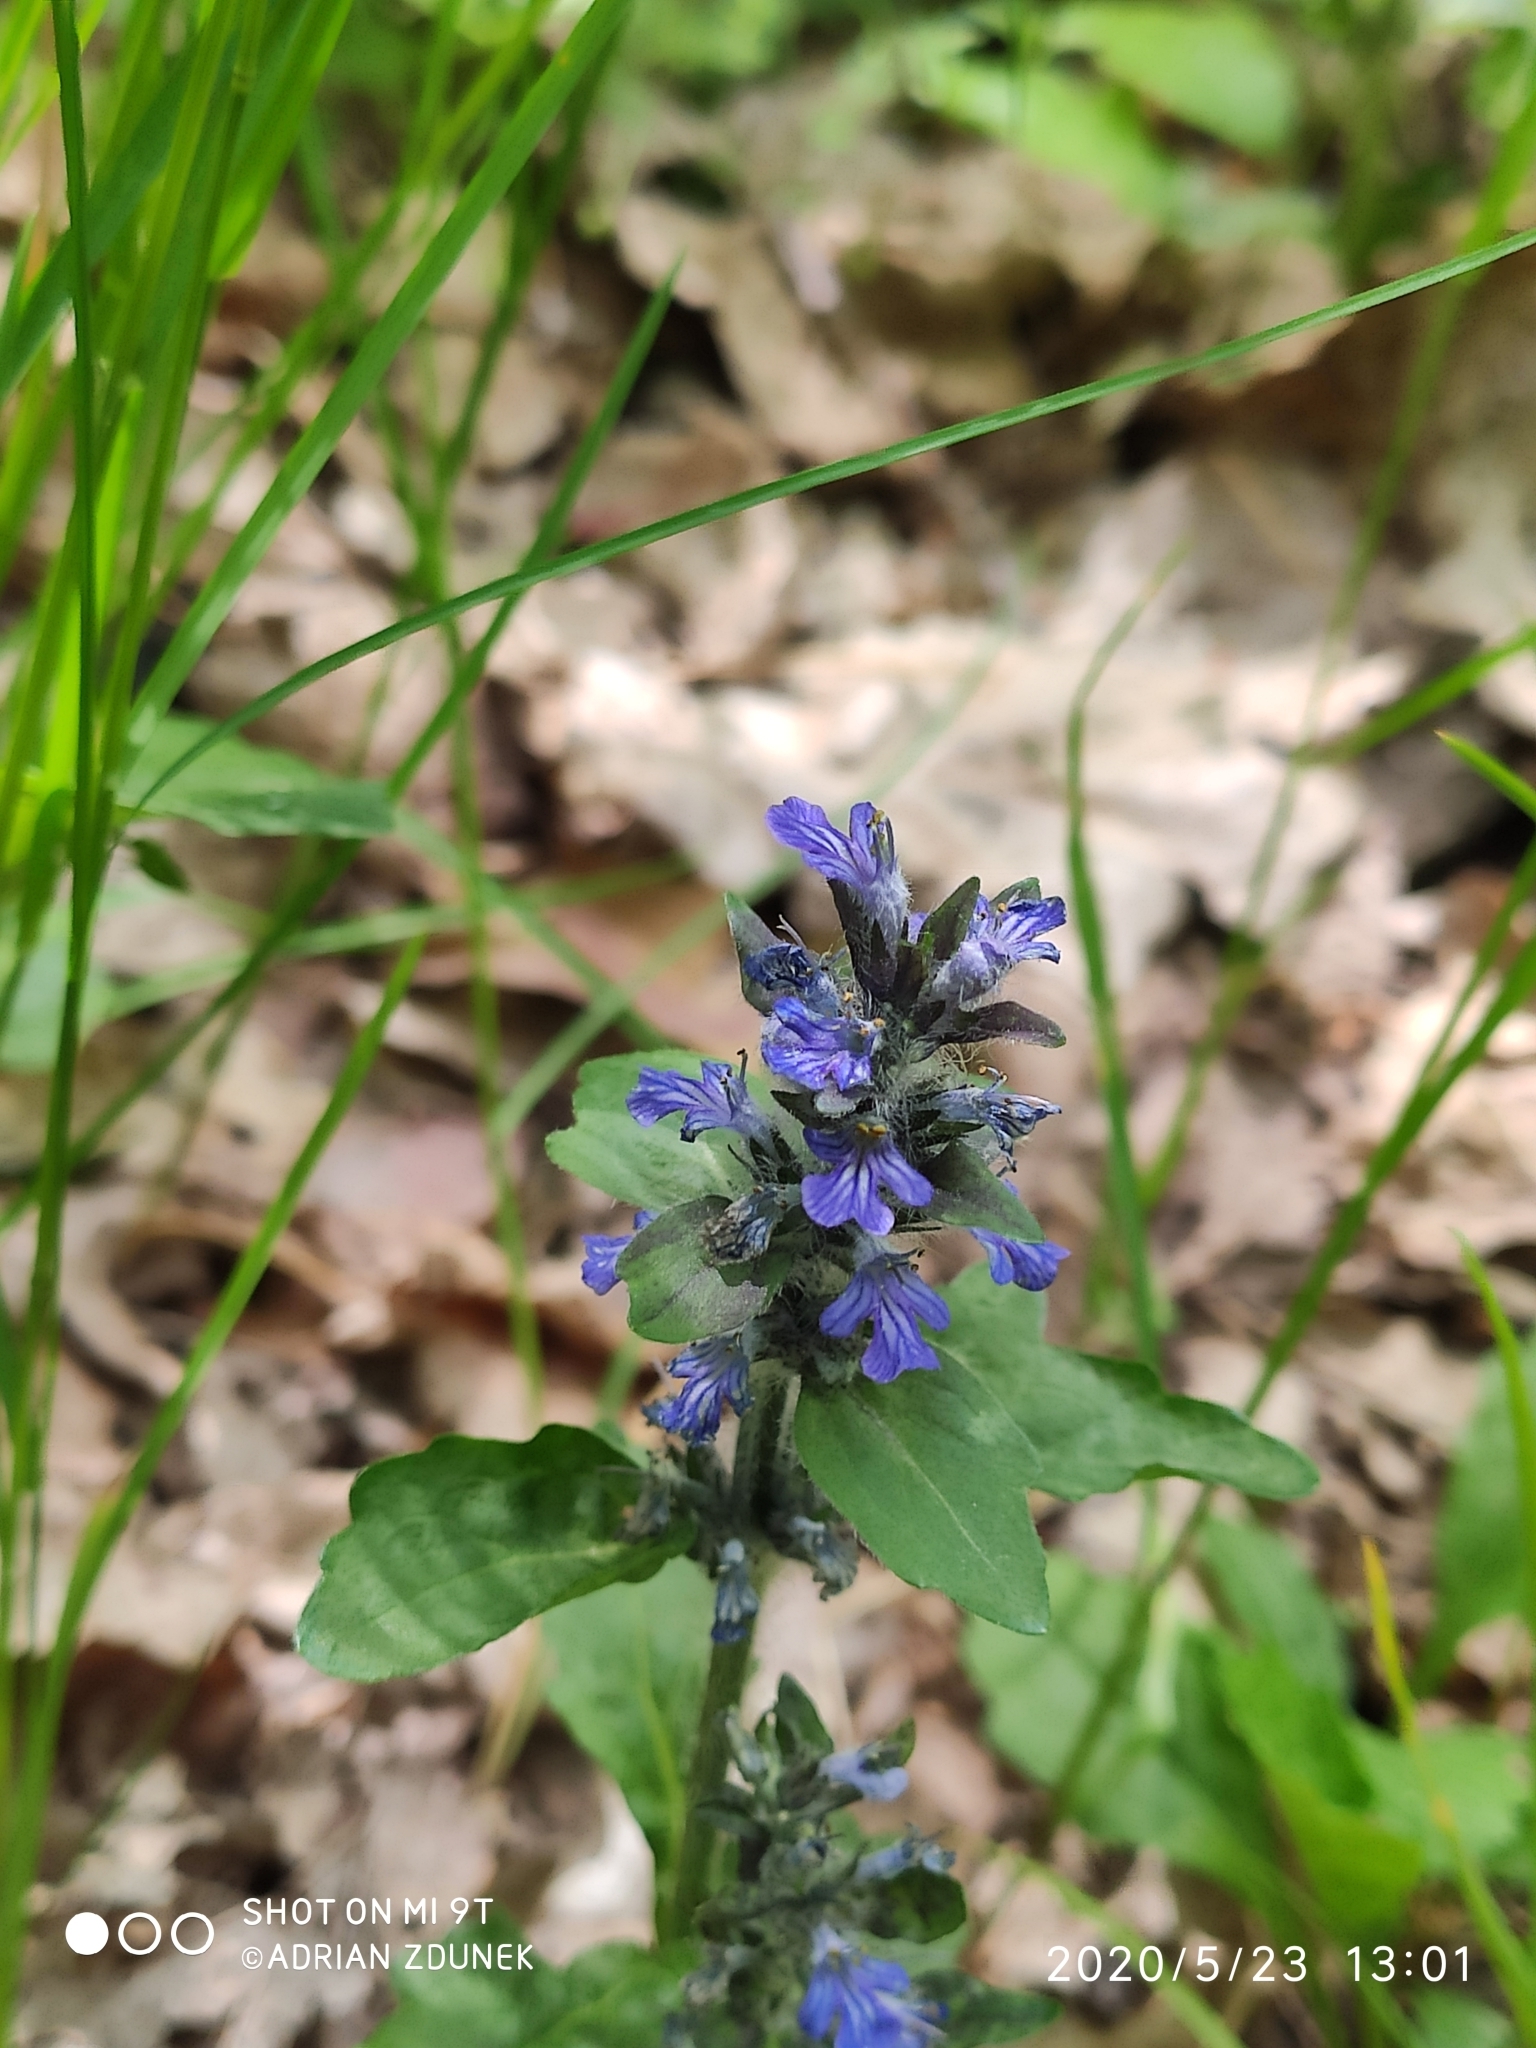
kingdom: Plantae
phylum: Tracheophyta
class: Magnoliopsida
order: Lamiales
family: Lamiaceae
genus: Ajuga
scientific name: Ajuga reptans
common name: Bugle
